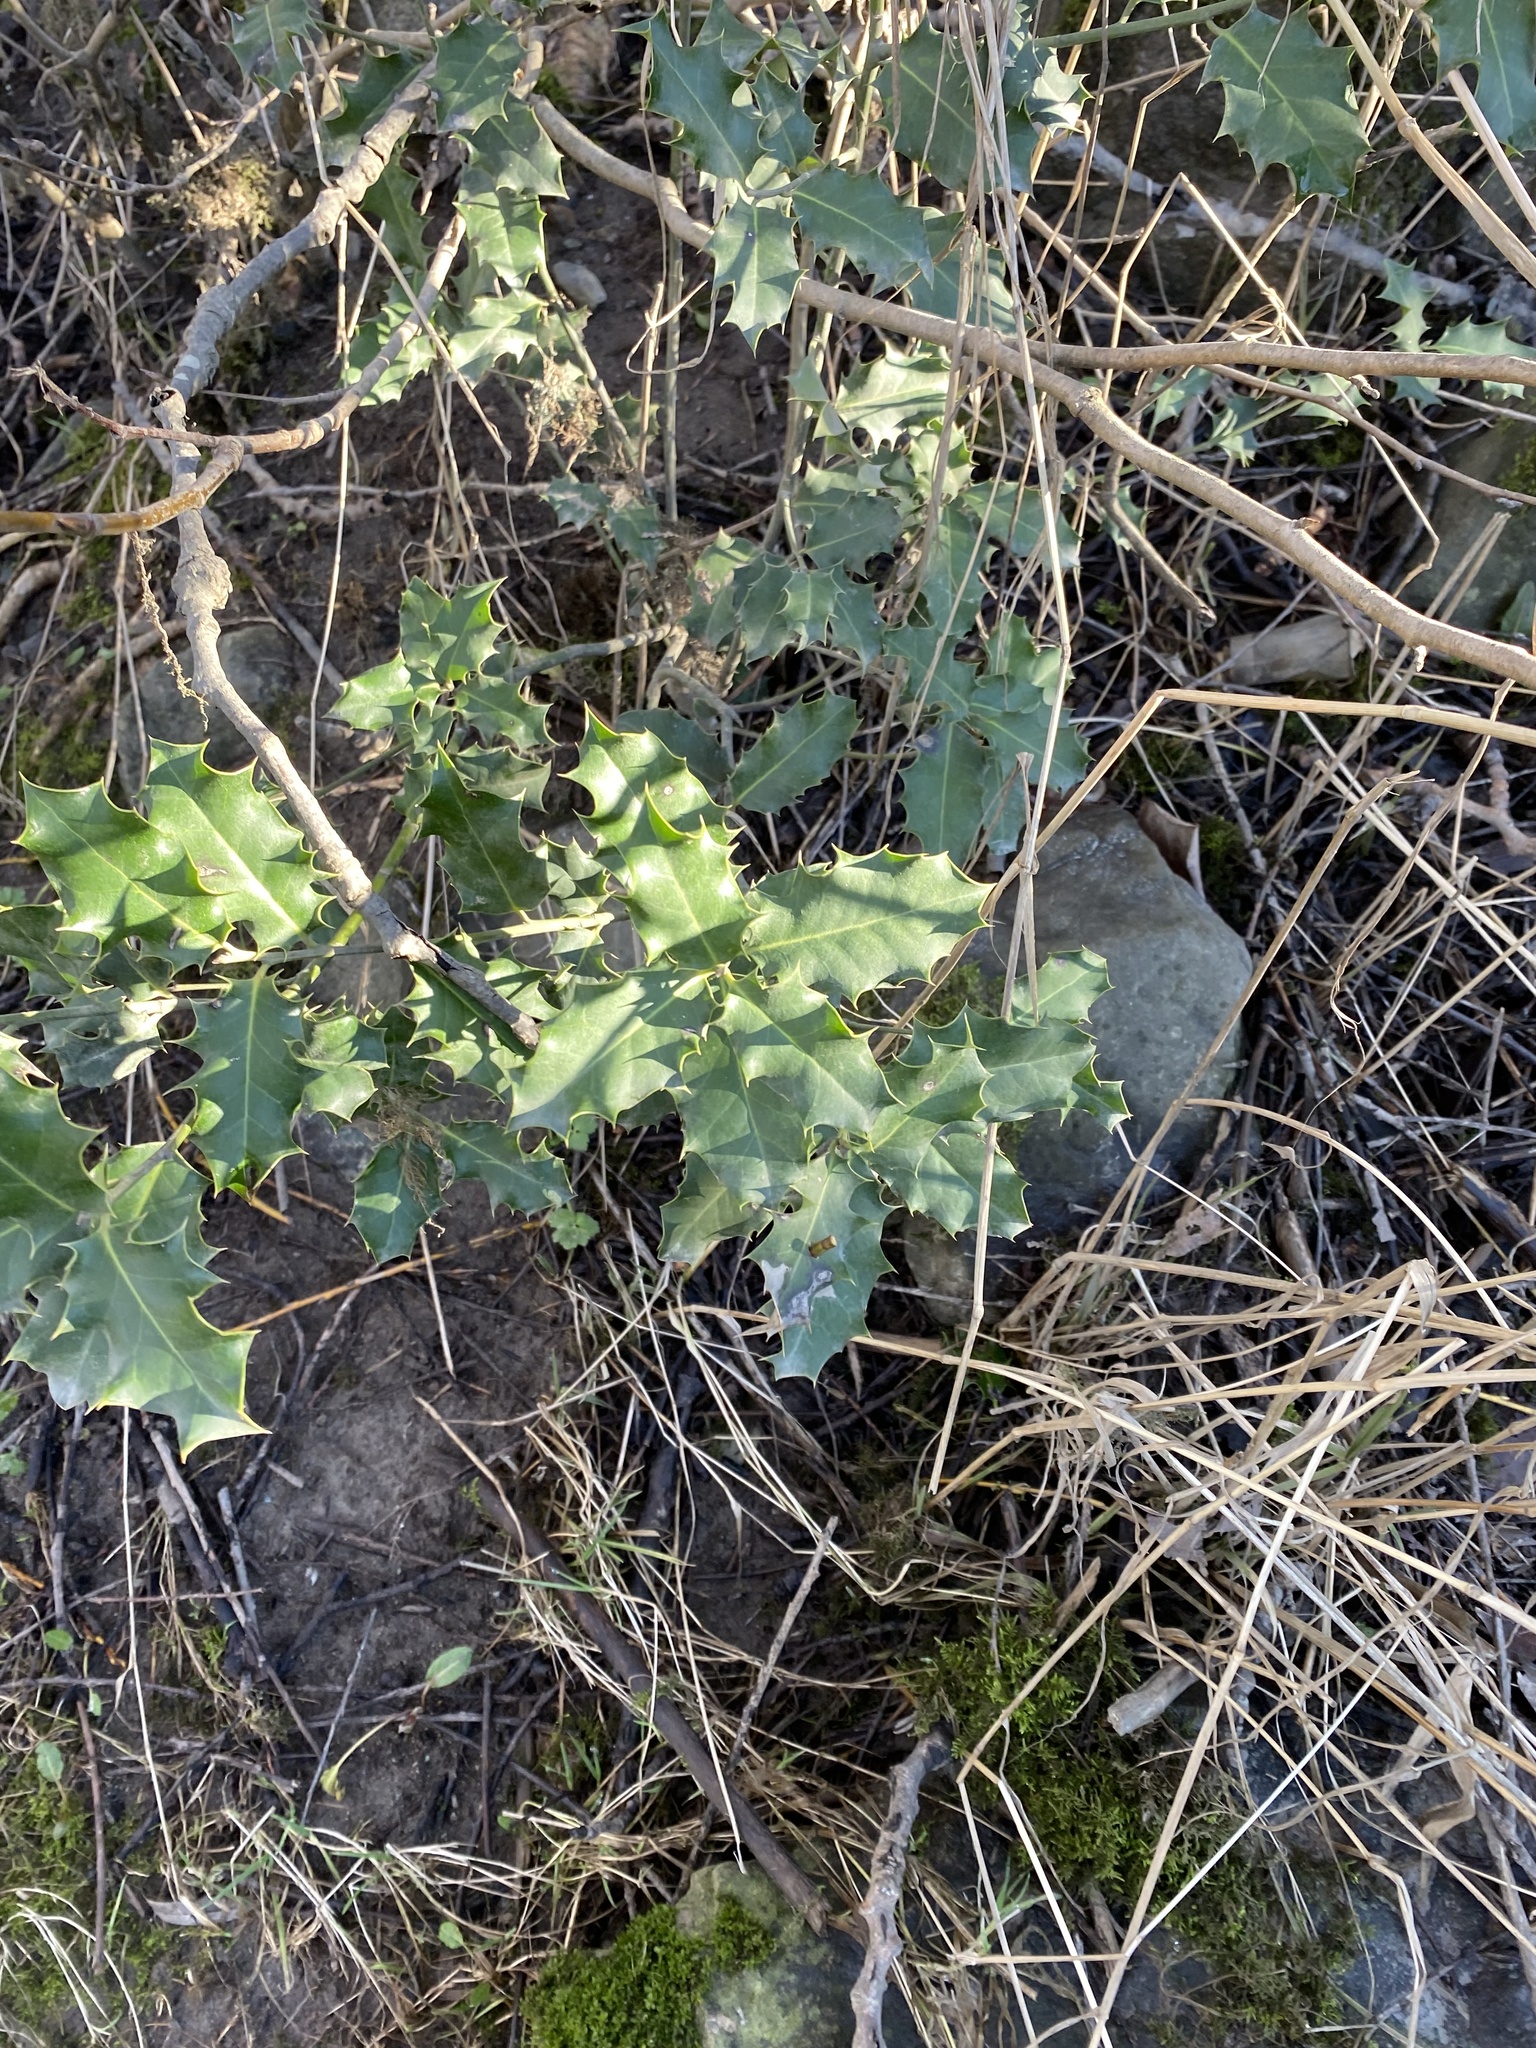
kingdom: Plantae
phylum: Tracheophyta
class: Magnoliopsida
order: Aquifoliales
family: Aquifoliaceae
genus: Ilex
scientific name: Ilex aquifolium
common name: English holly
